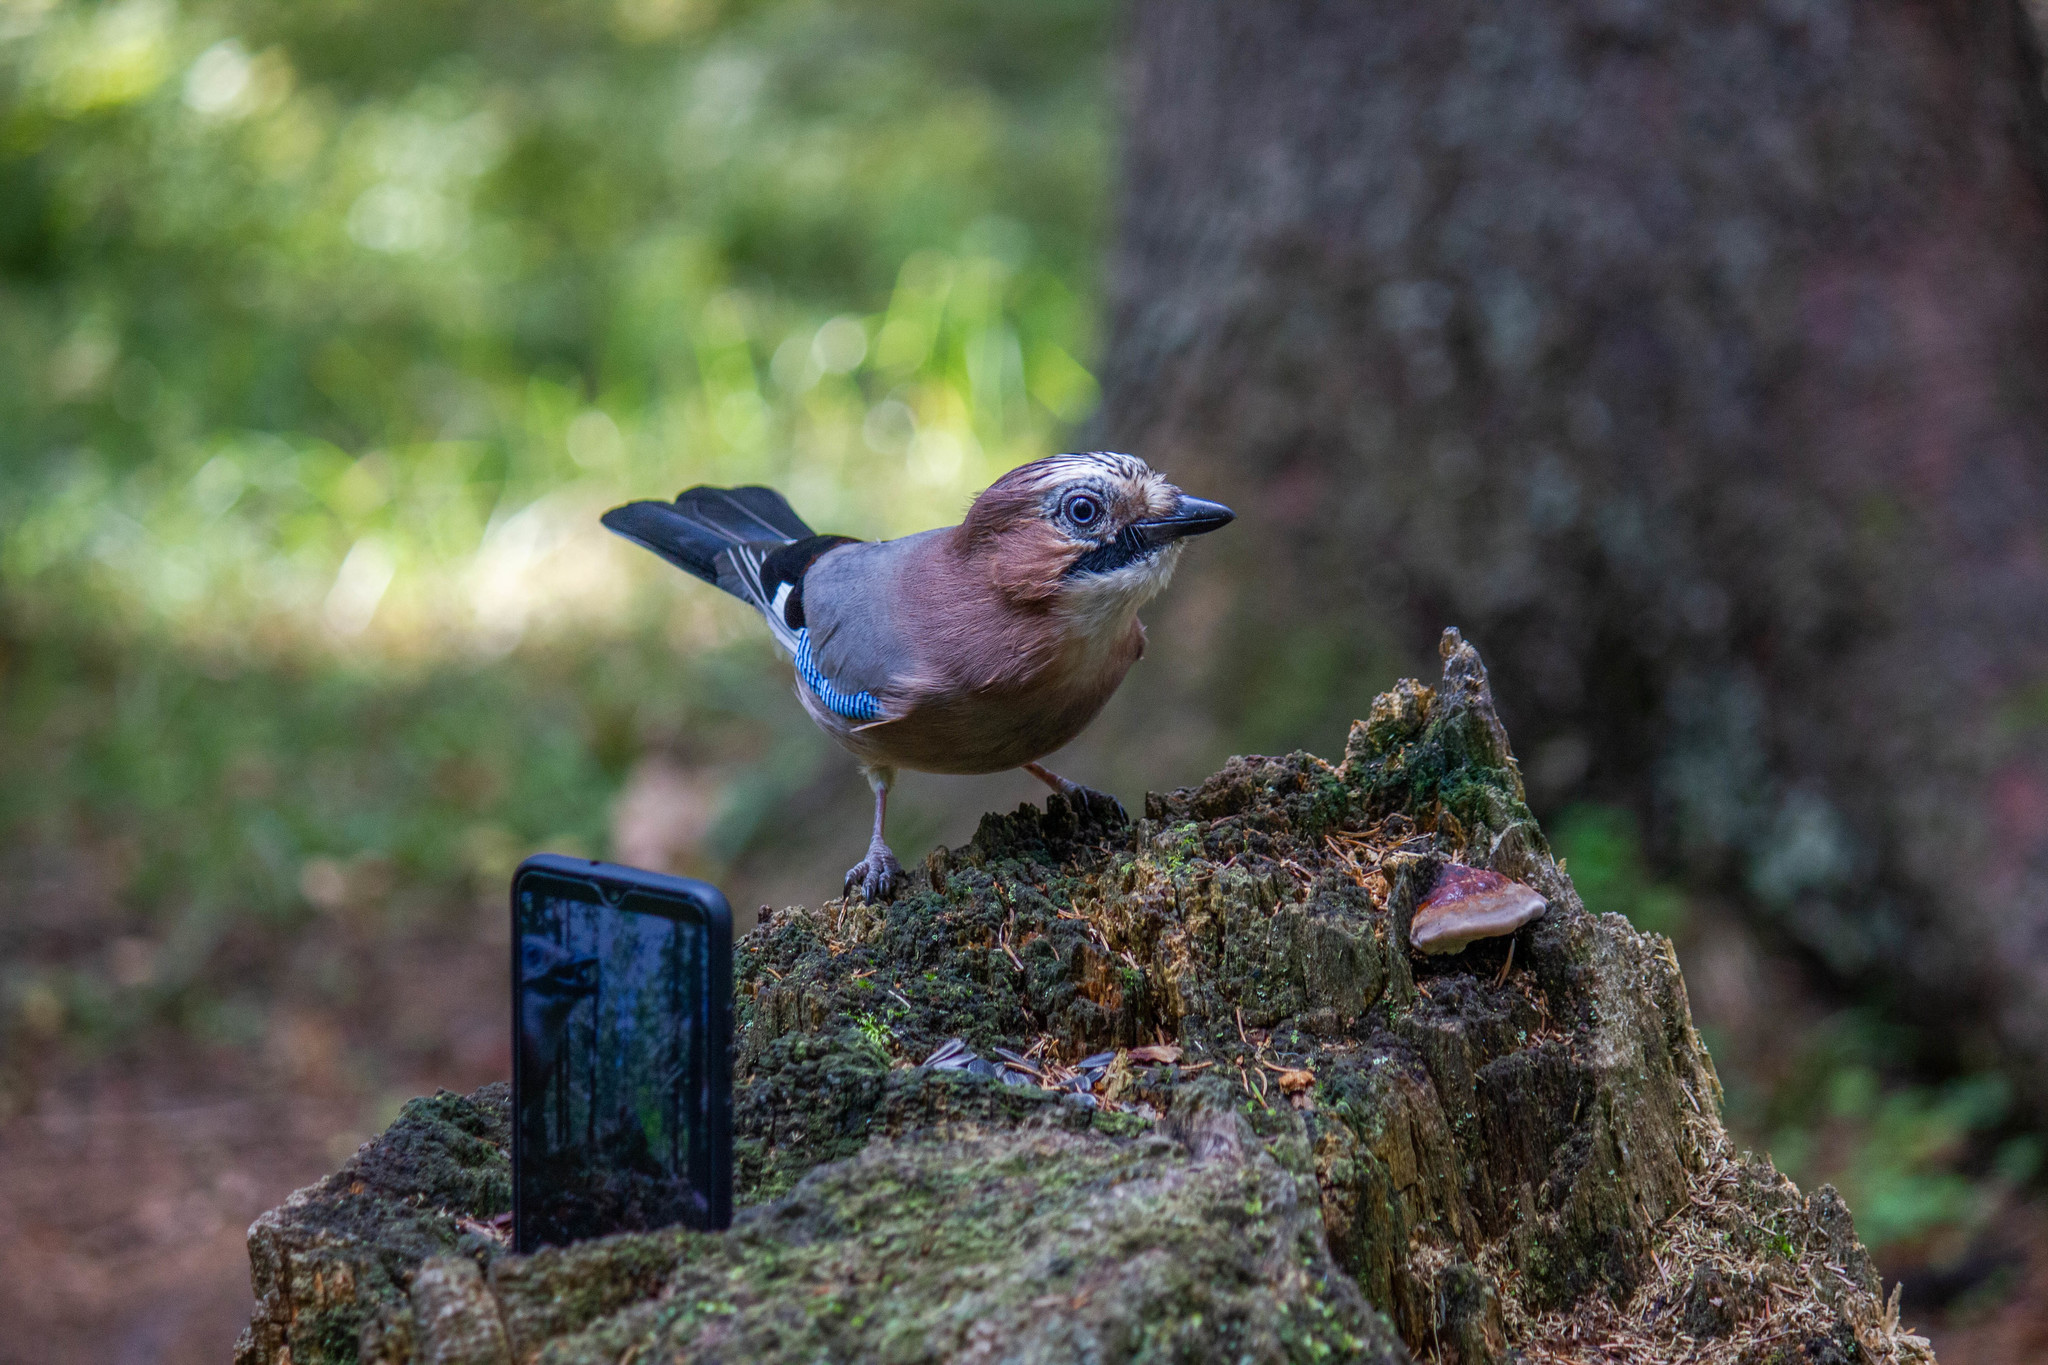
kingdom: Animalia
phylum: Chordata
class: Aves
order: Passeriformes
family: Corvidae
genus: Garrulus
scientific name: Garrulus glandarius
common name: Eurasian jay
